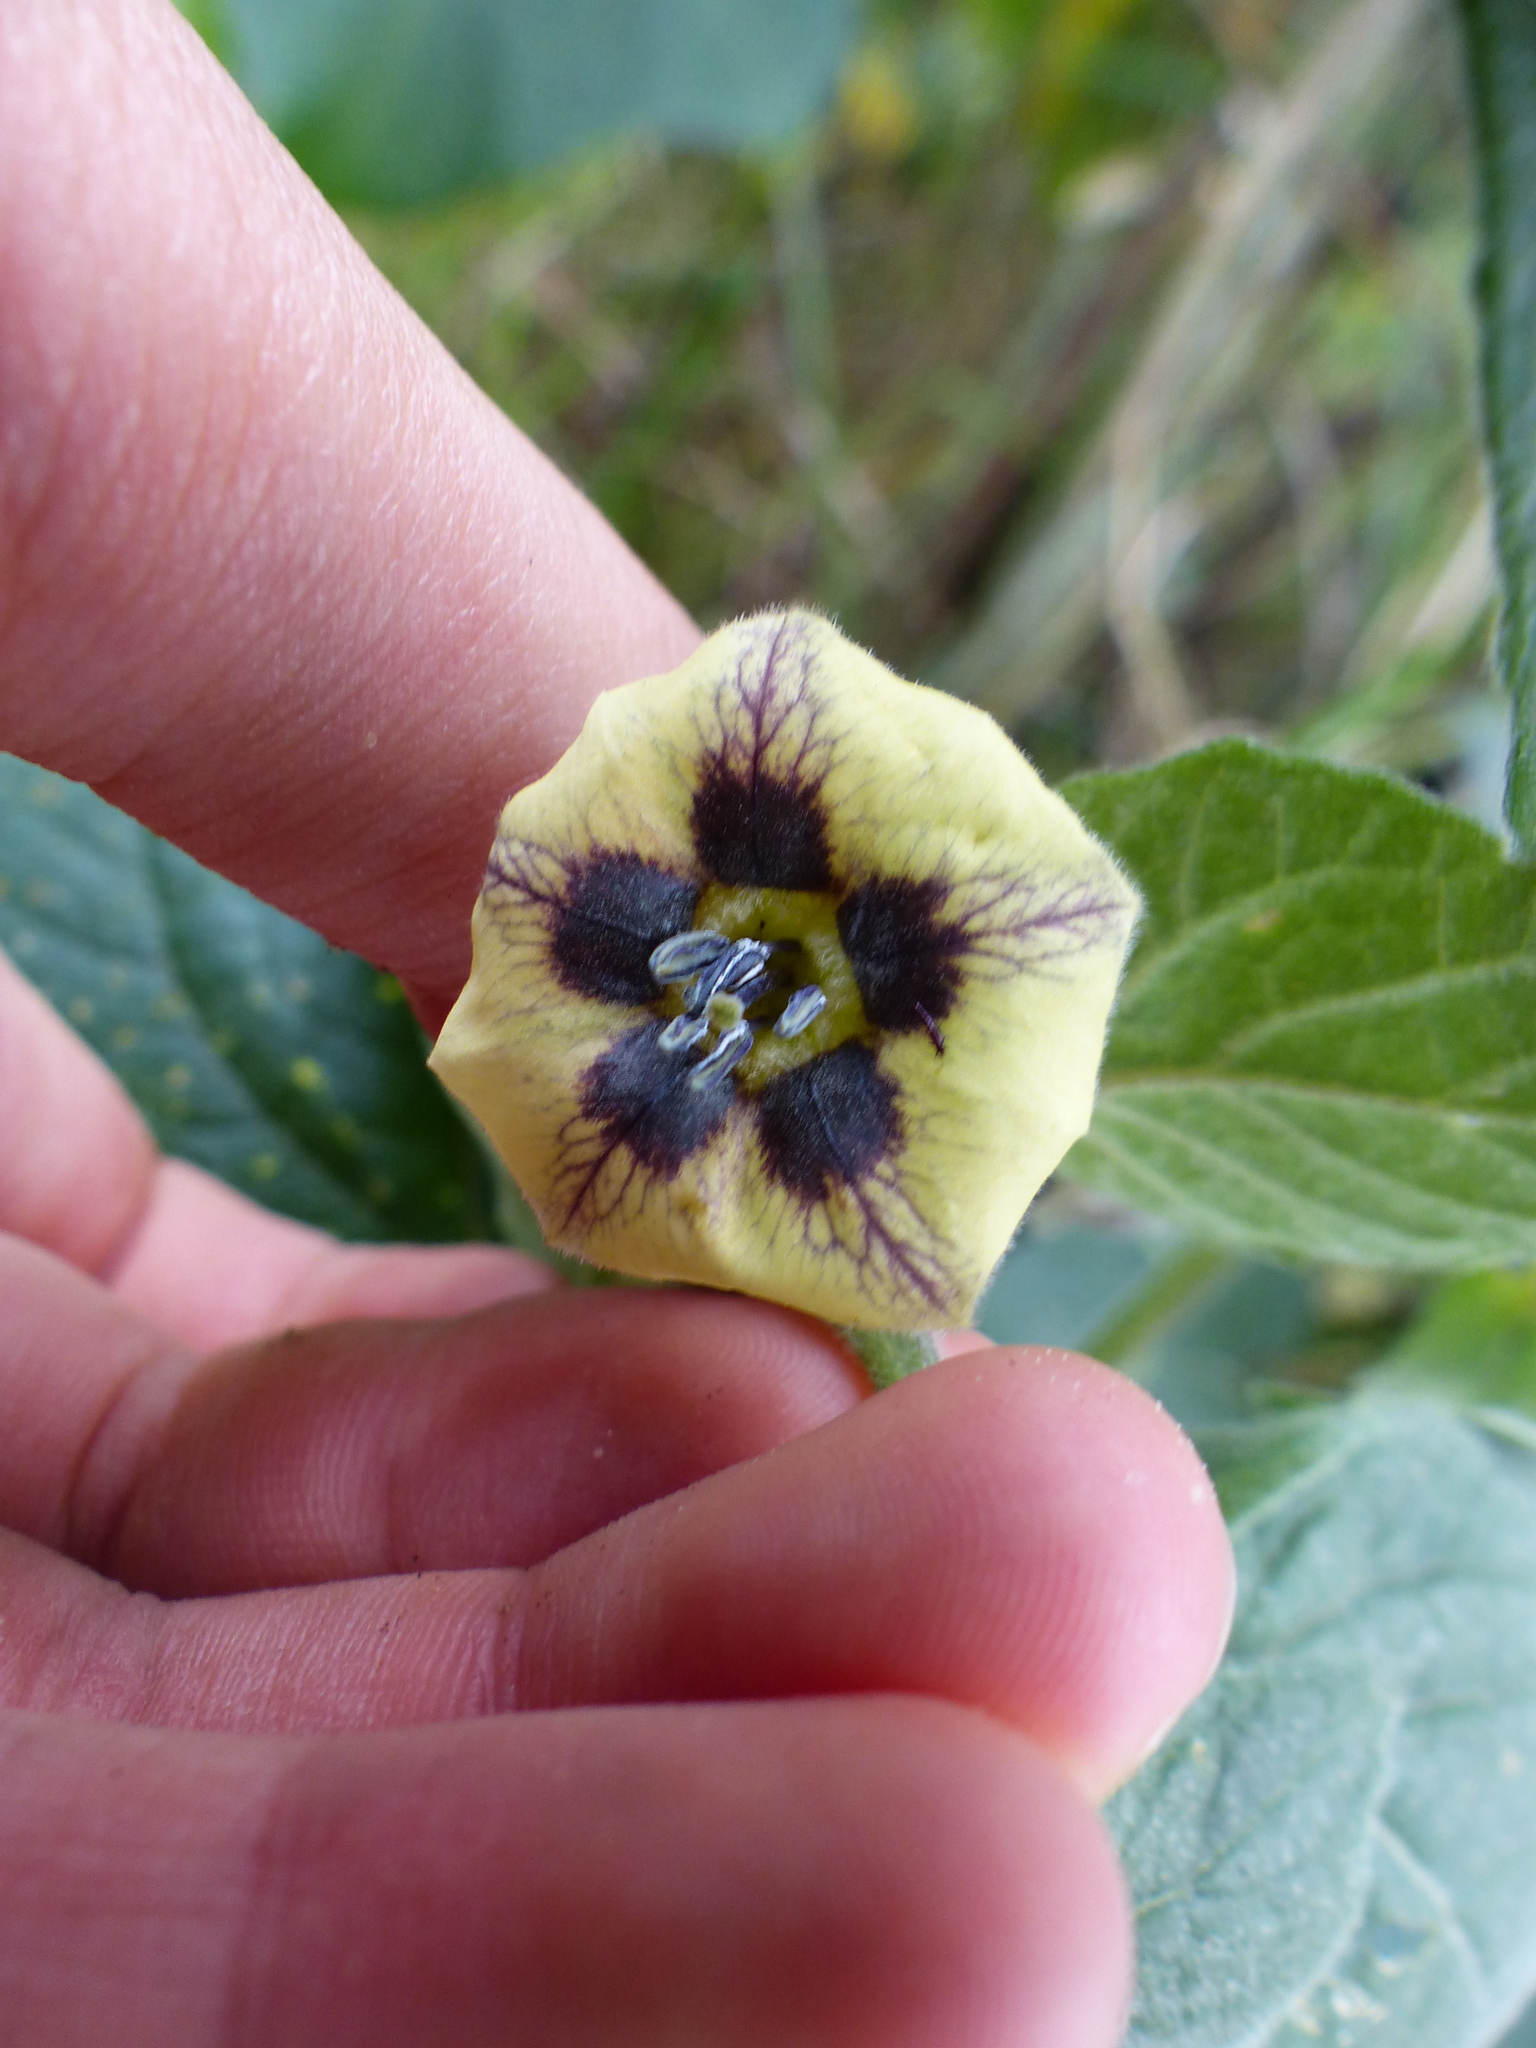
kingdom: Plantae
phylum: Tracheophyta
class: Magnoliopsida
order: Solanales
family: Solanaceae
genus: Physalis
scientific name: Physalis peruviana
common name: Cape-gooseberry
